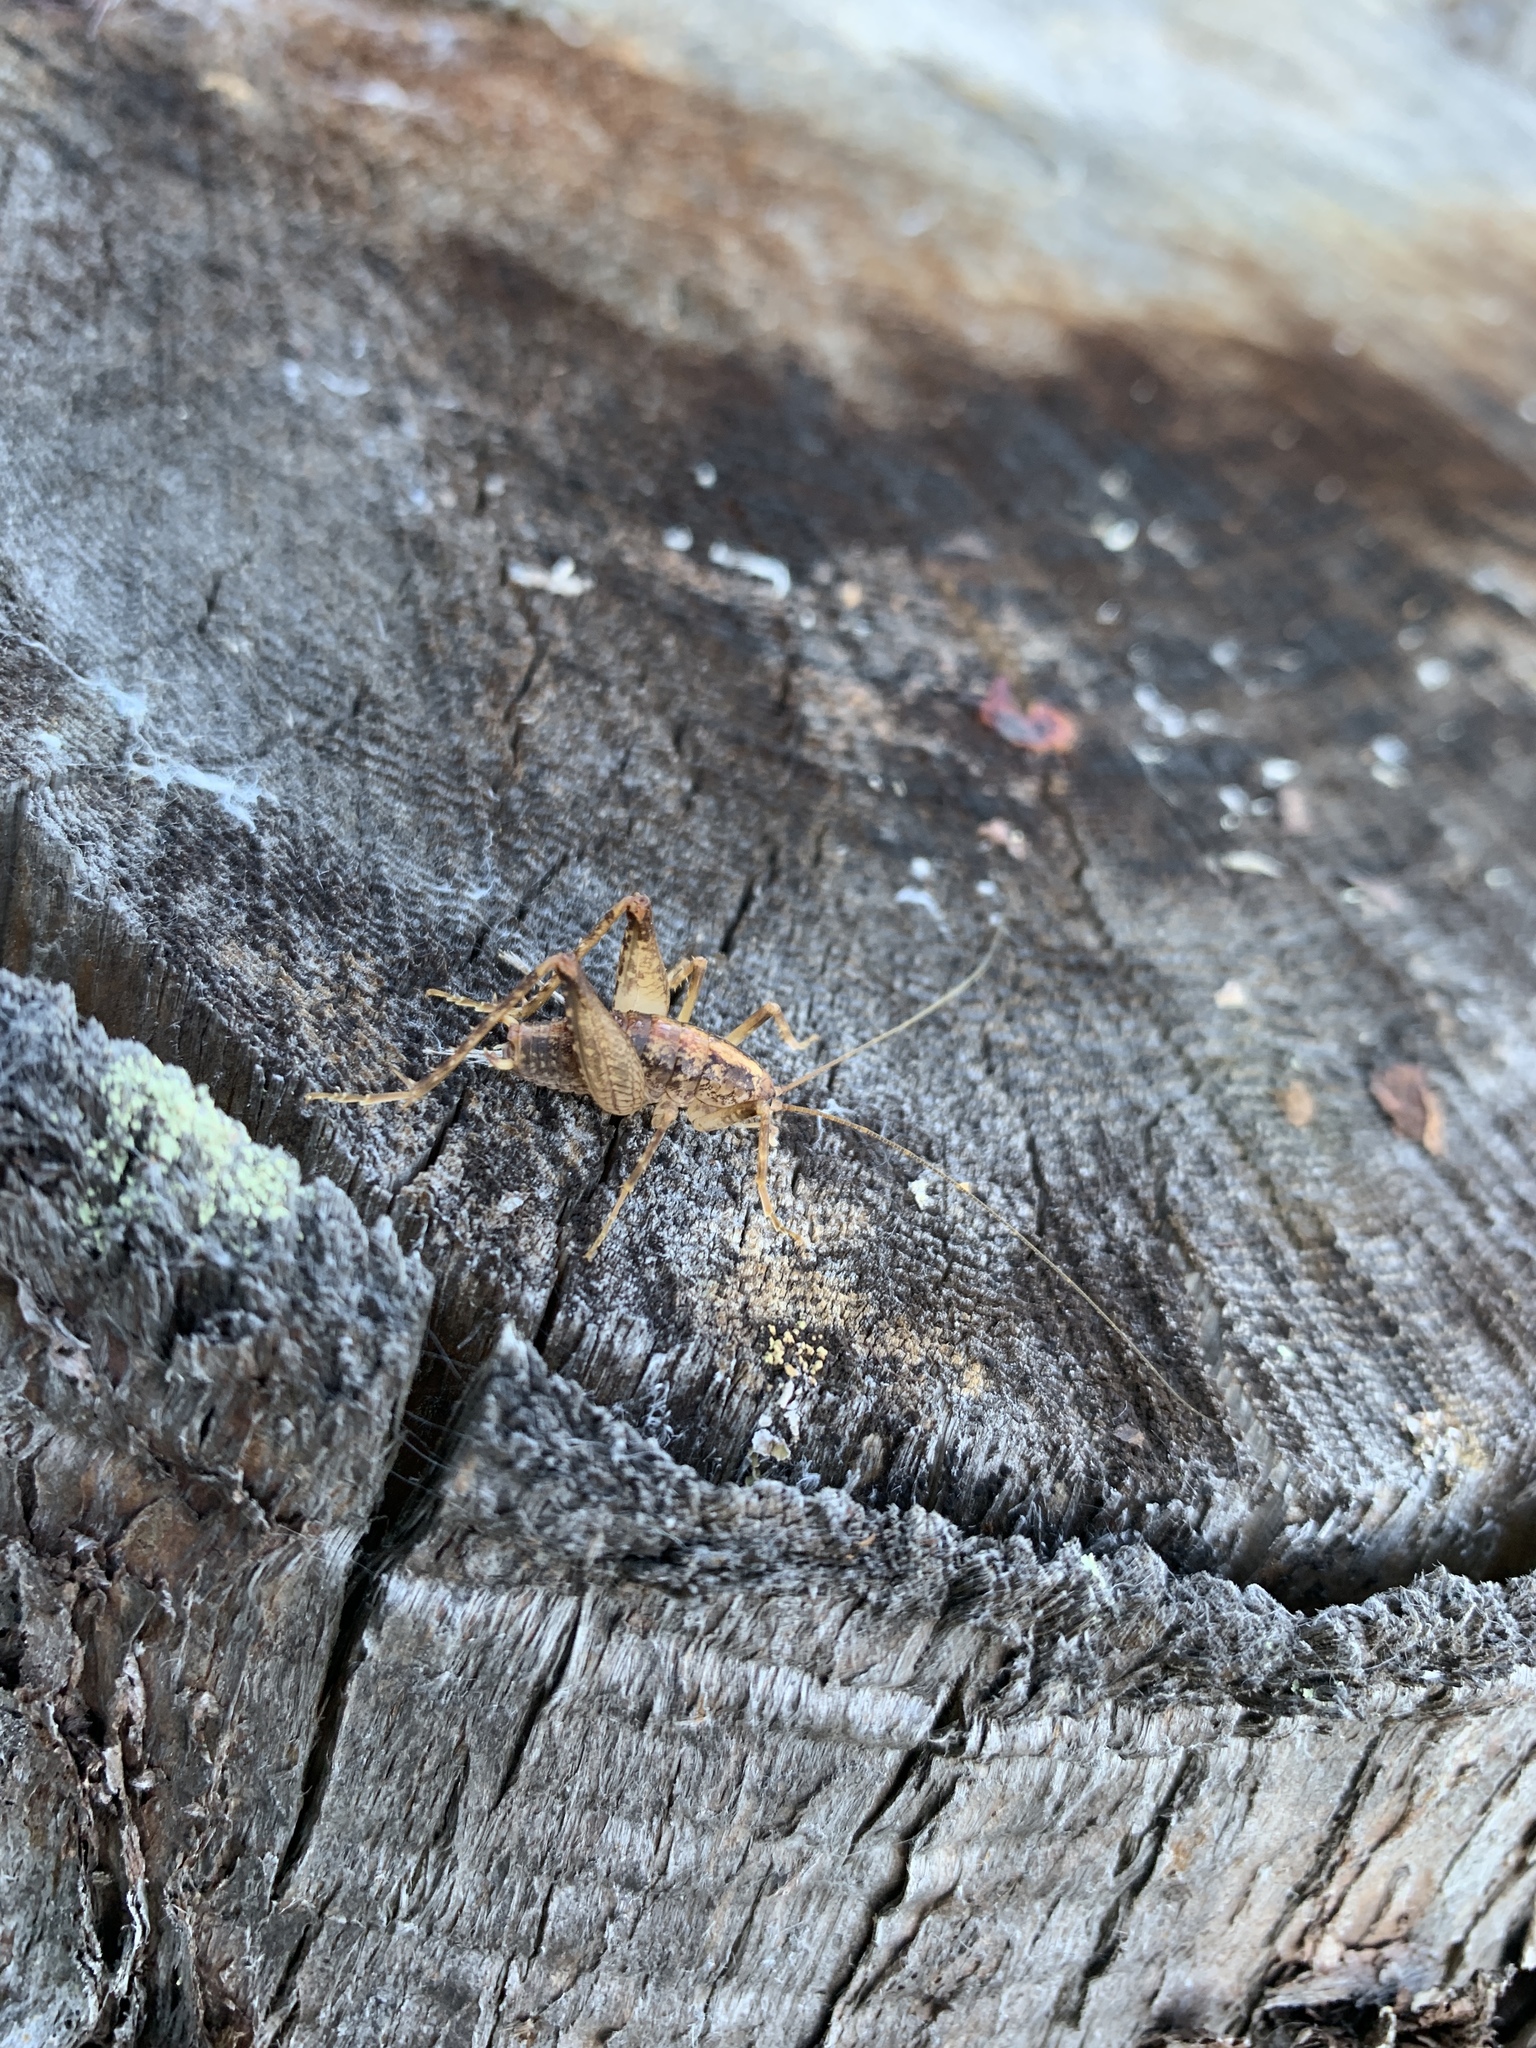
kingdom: Animalia
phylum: Arthropoda
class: Insecta
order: Orthoptera
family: Rhaphidophoridae
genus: Pristoceuthophilus
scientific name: Pristoceuthophilus celatus
